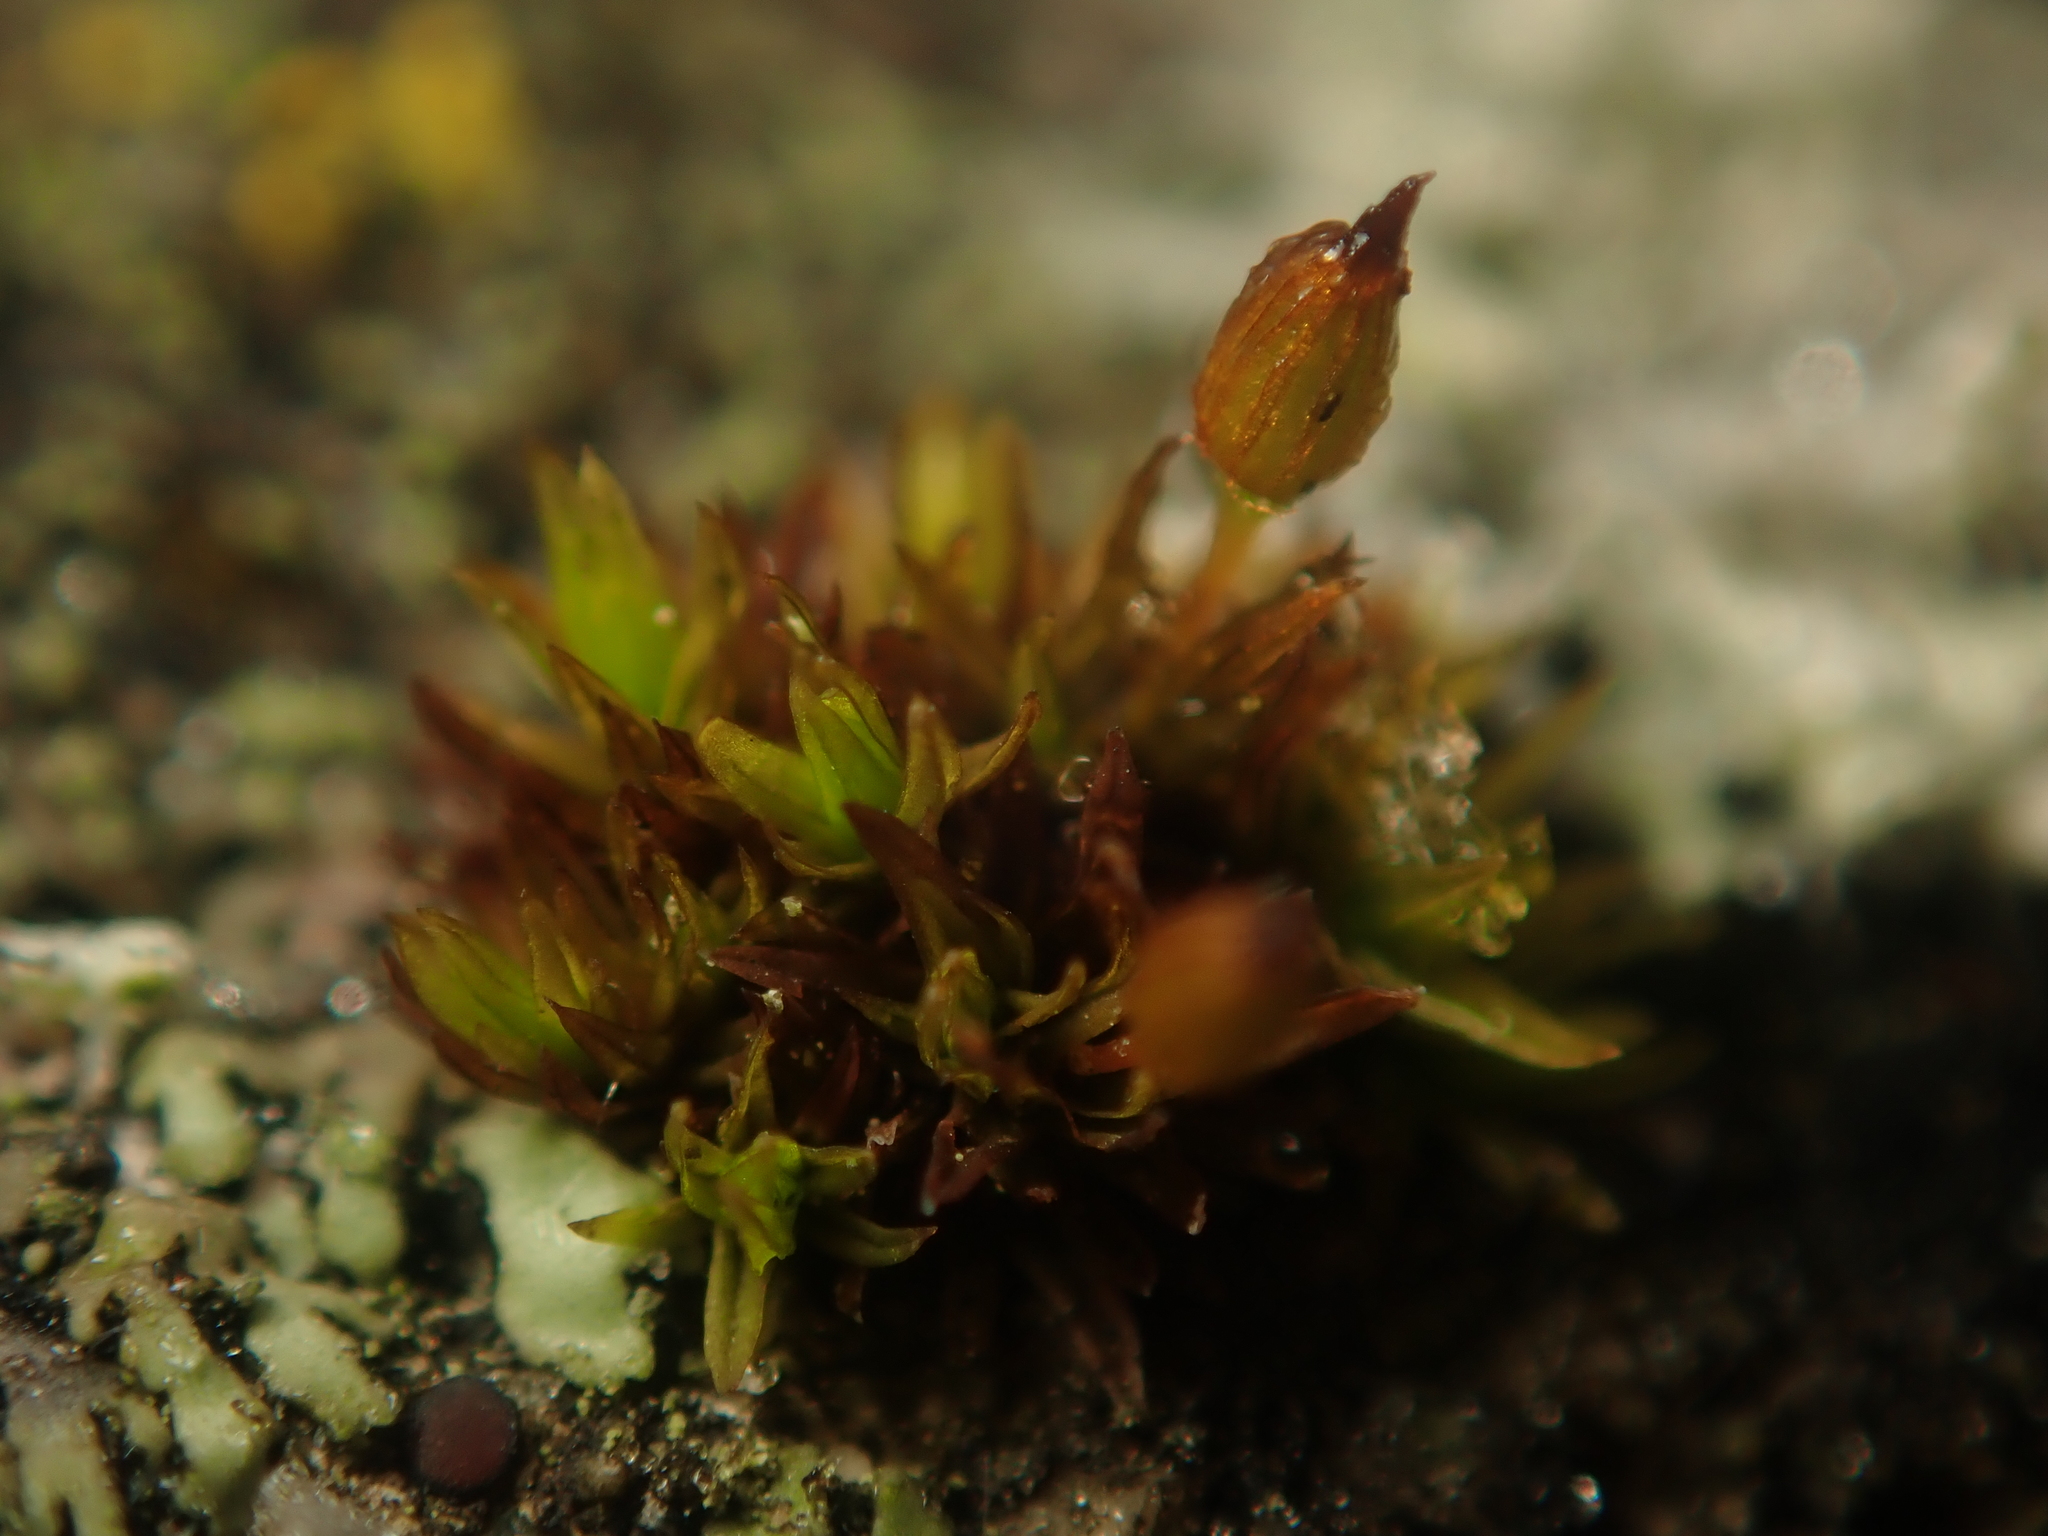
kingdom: Plantae
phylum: Bryophyta
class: Bryopsida
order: Orthotrichales
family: Orthotrichaceae
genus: Orthotrichum
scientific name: Orthotrichum anomalum
